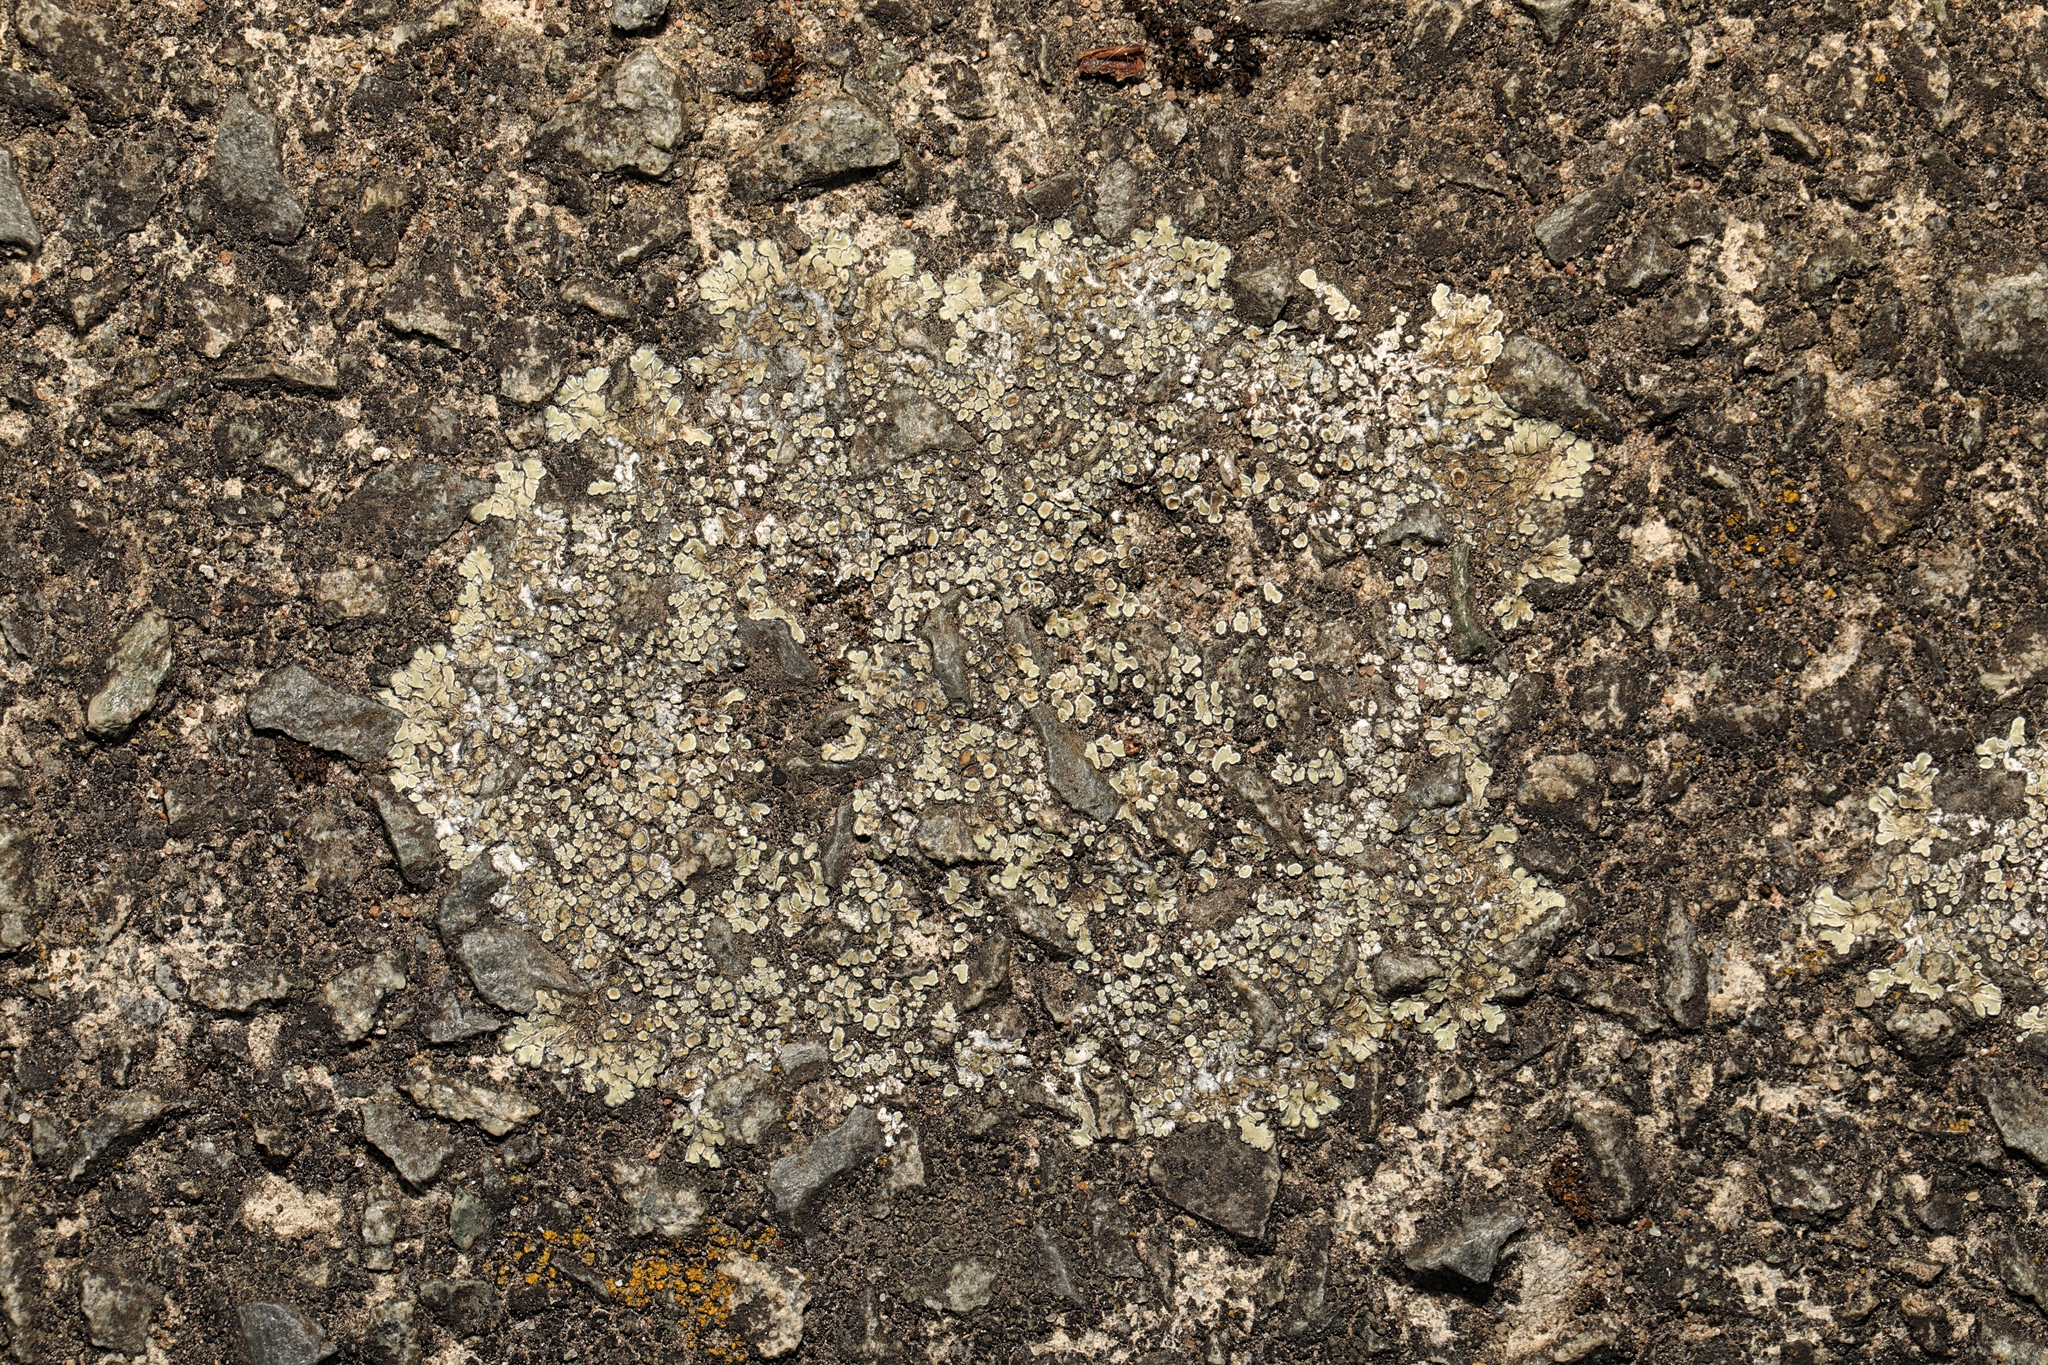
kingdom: Fungi
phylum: Ascomycota
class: Lecanoromycetes
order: Lecanorales
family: Lecanoraceae
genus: Protoparmeliopsis
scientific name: Protoparmeliopsis muralis
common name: Stonewall rim lichen
